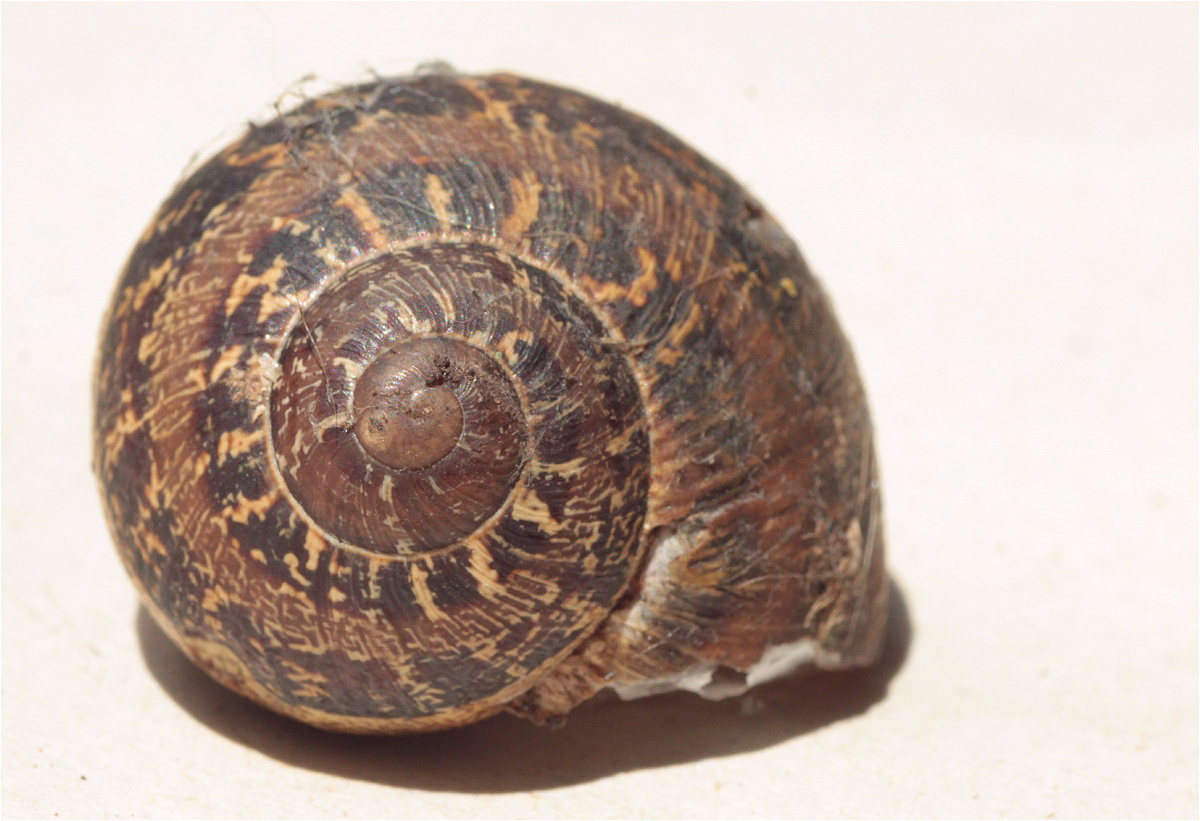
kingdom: Animalia
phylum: Mollusca
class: Gastropoda
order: Stylommatophora
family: Helicidae
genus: Cornu
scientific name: Cornu aspersum
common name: Brown garden snail
